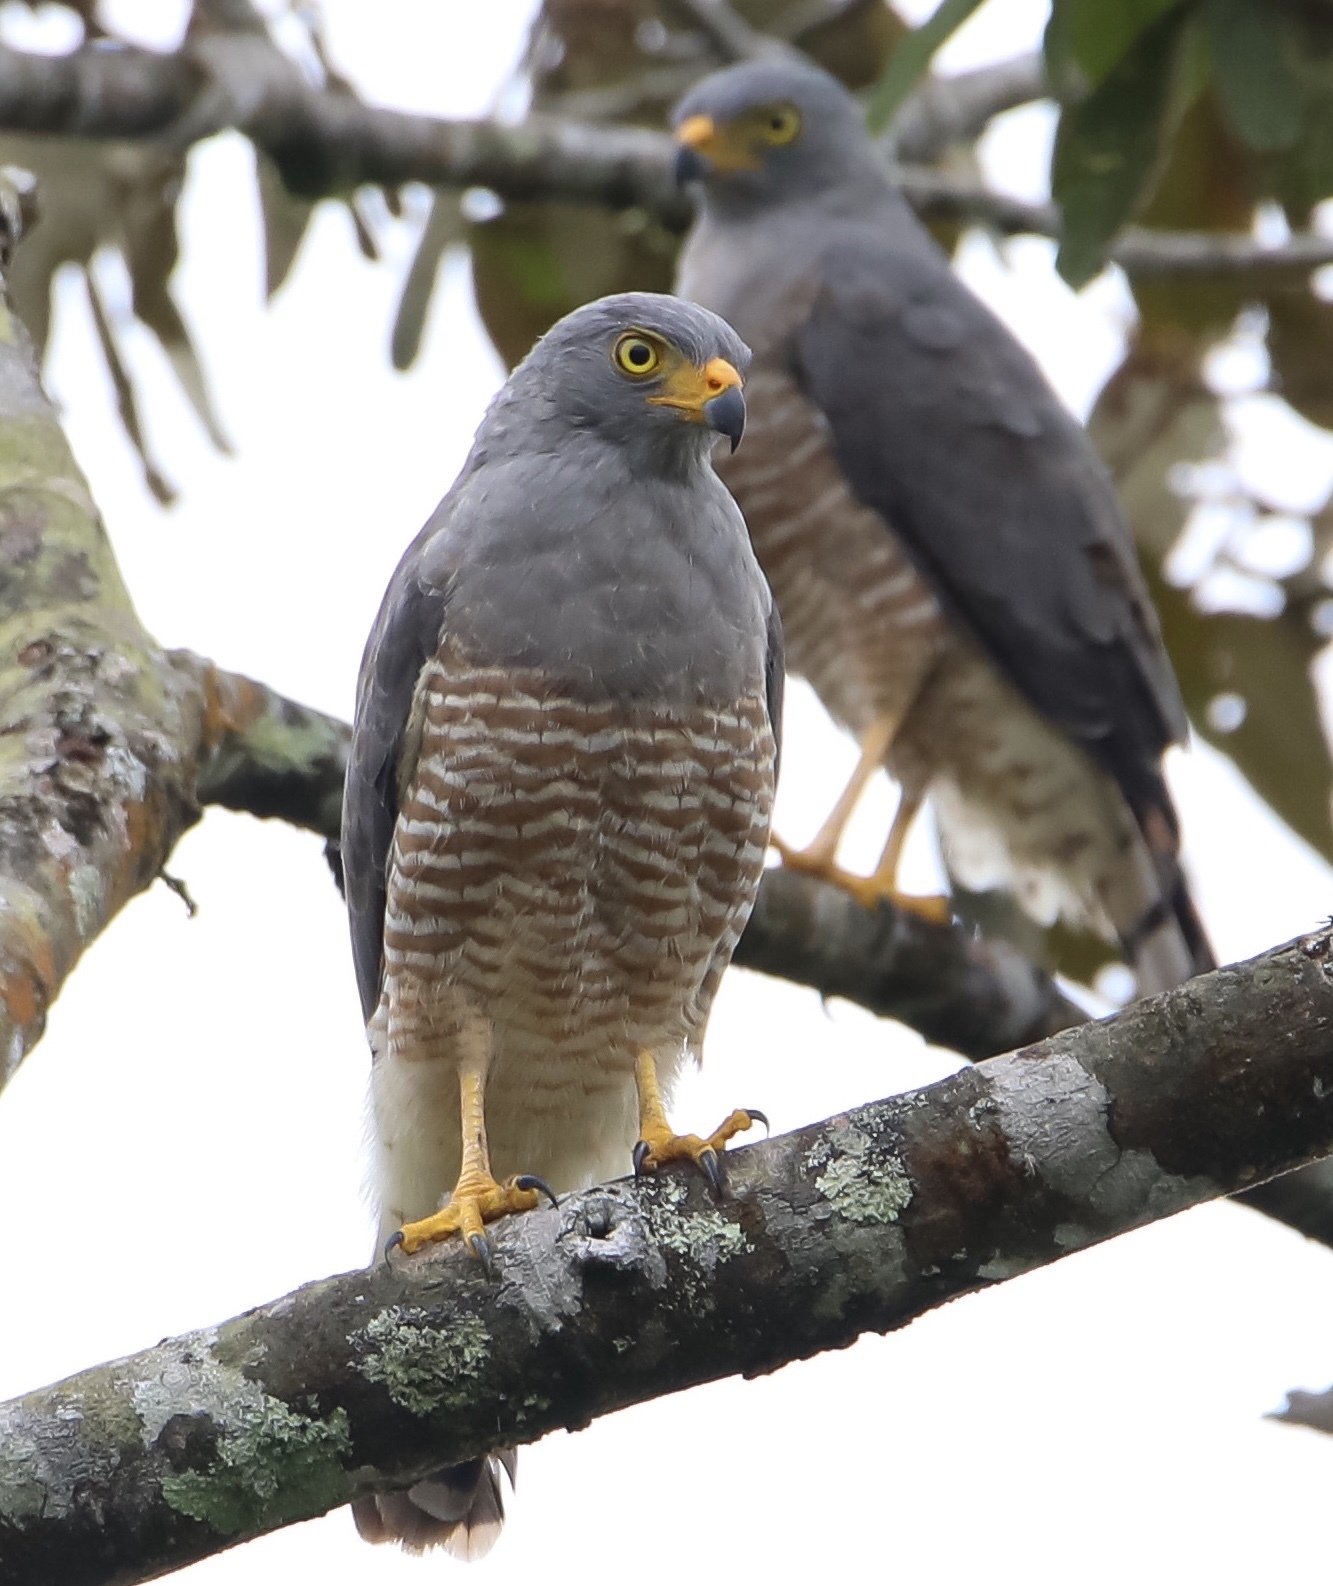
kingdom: Animalia
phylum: Chordata
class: Aves
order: Accipitriformes
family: Accipitridae
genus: Rupornis
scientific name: Rupornis magnirostris
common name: Roadside hawk
